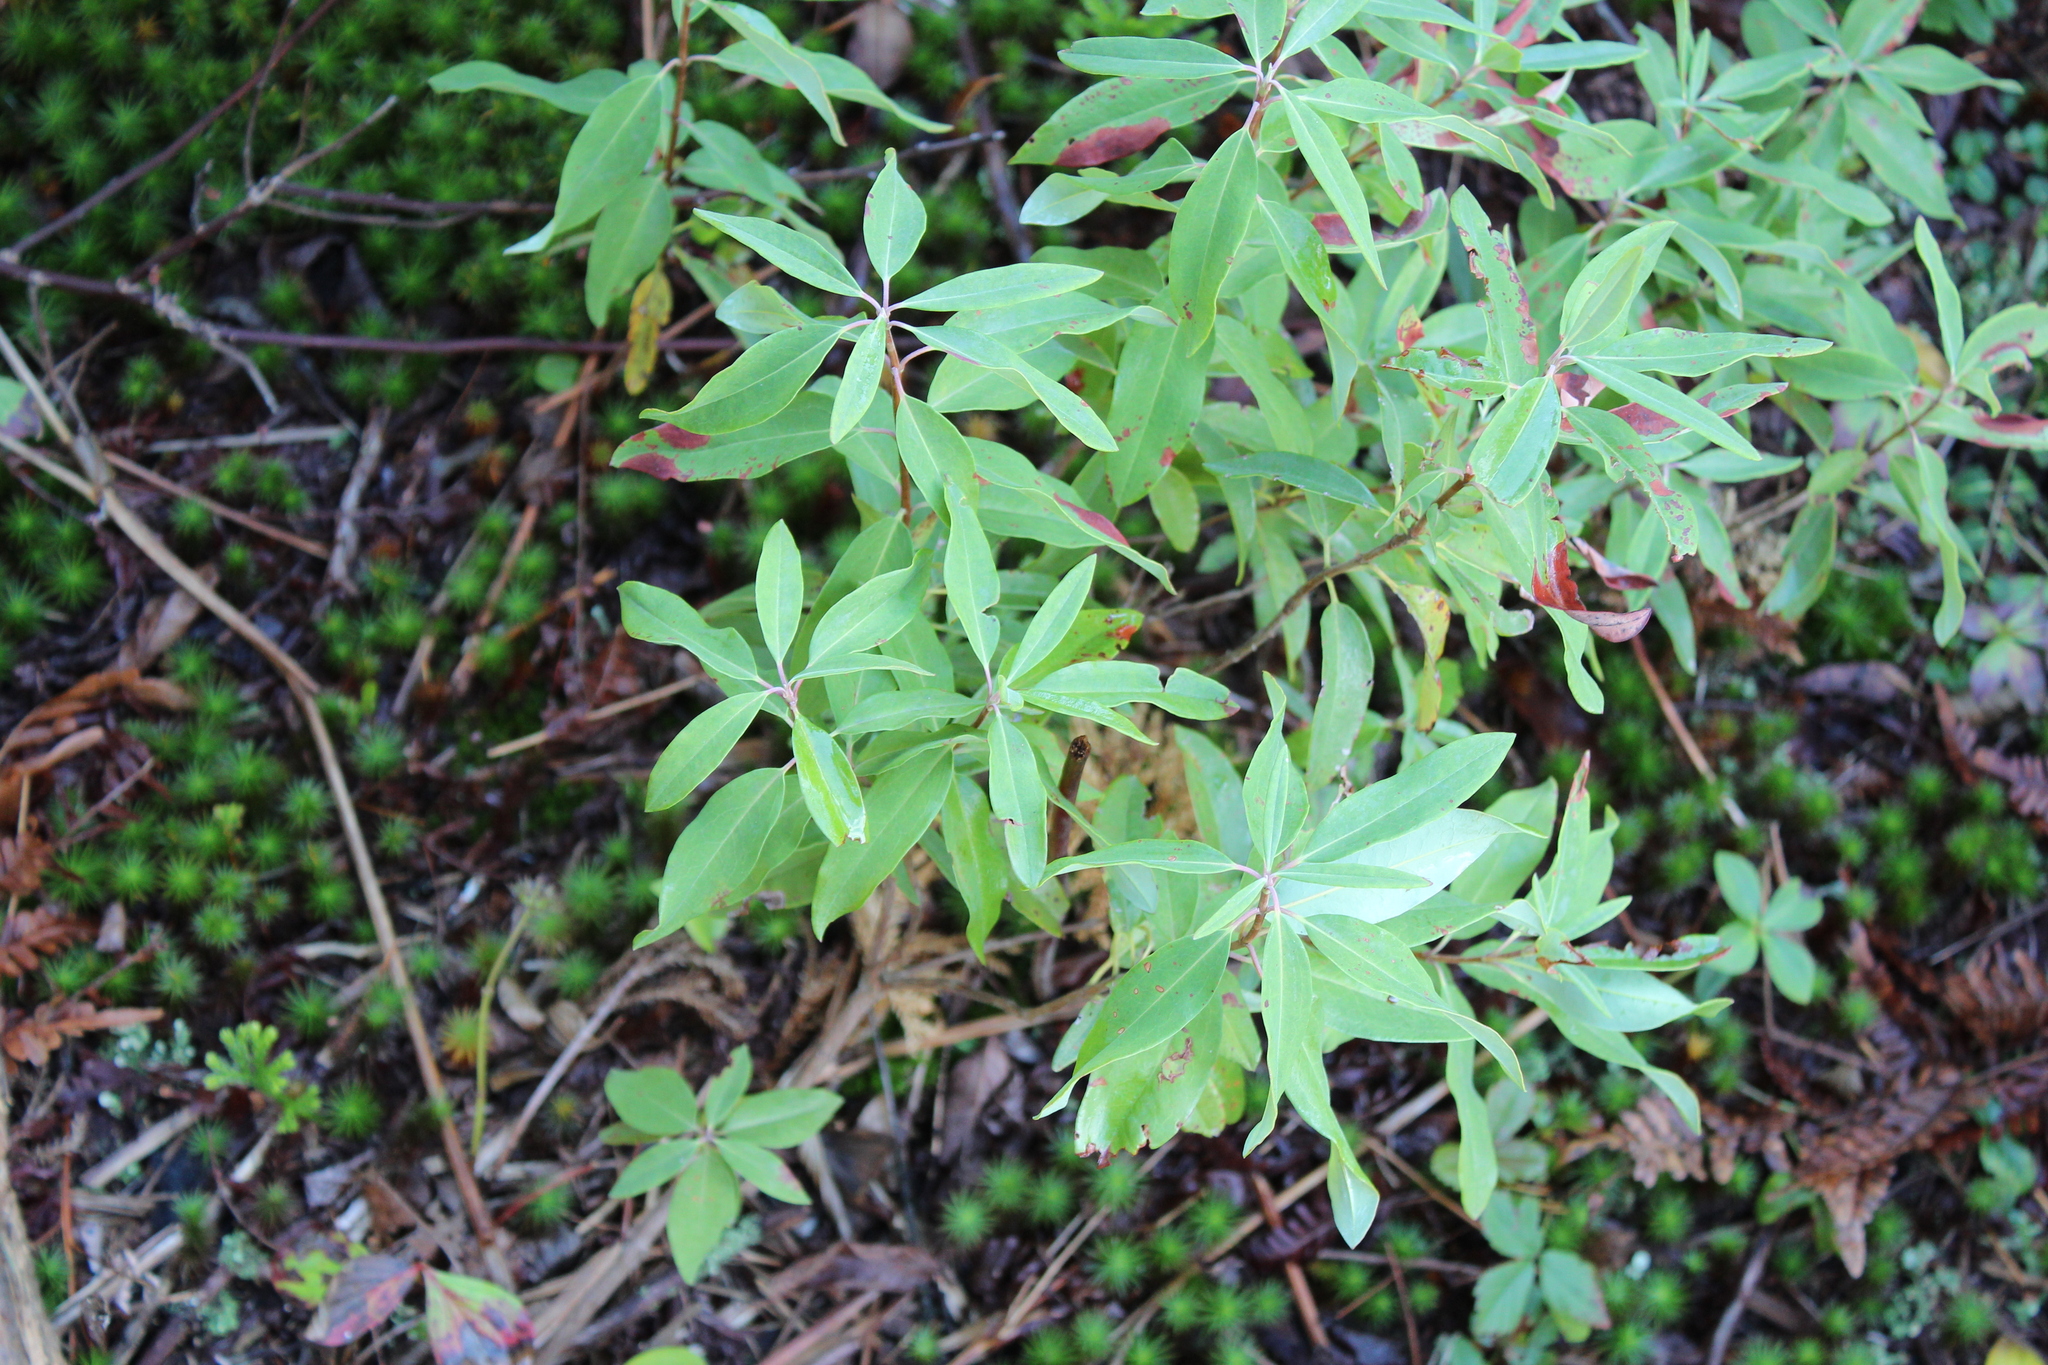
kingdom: Plantae
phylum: Tracheophyta
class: Magnoliopsida
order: Ericales
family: Ericaceae
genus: Kalmia
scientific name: Kalmia angustifolia
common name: Sheep-laurel
